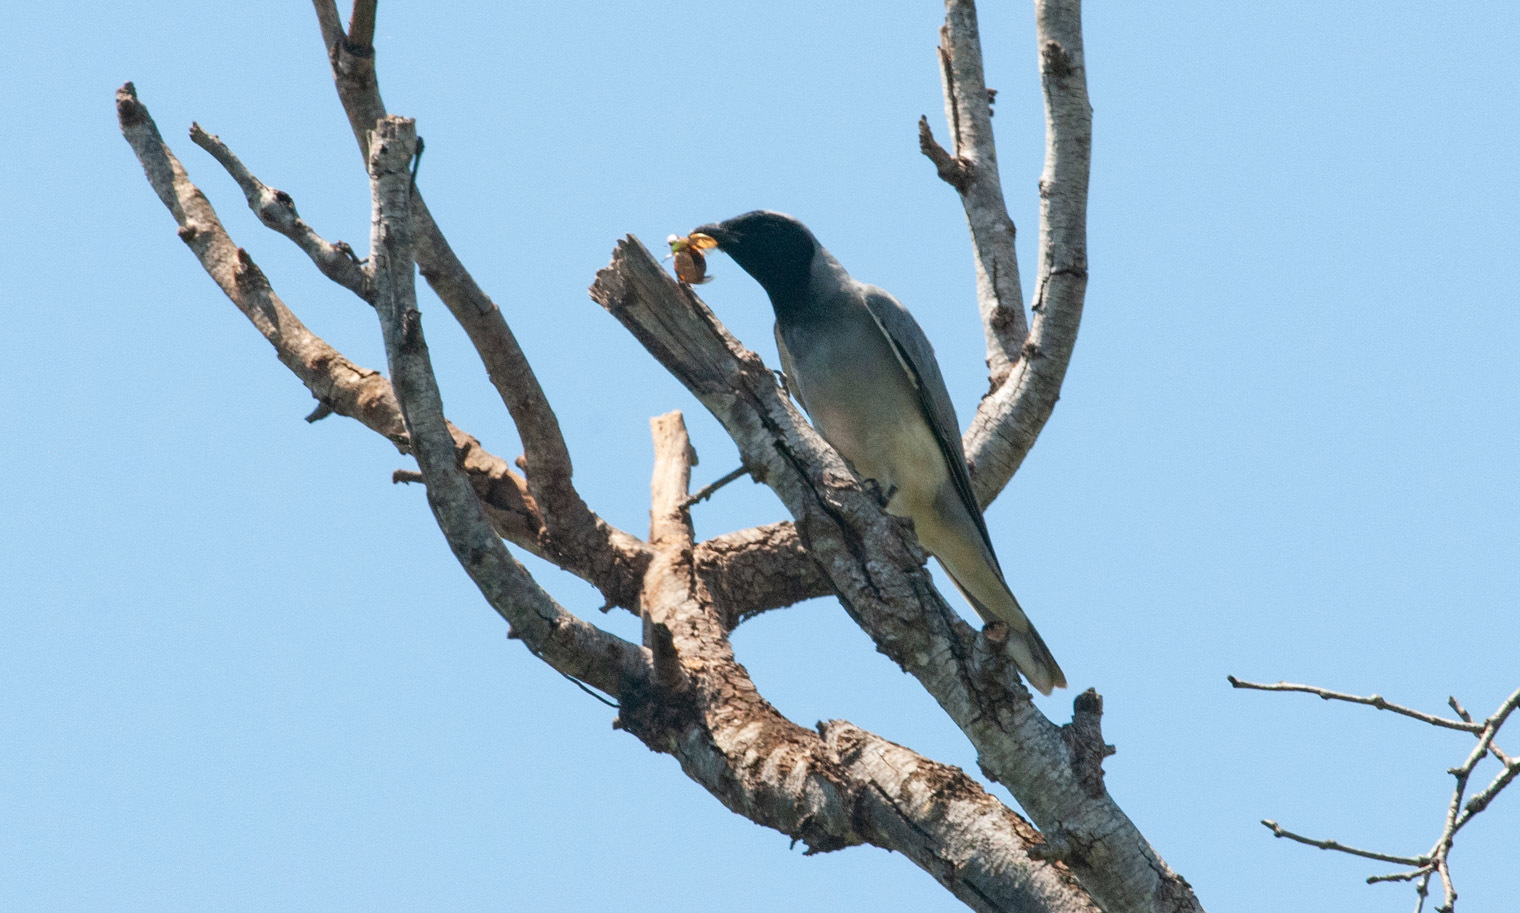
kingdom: Animalia
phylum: Chordata
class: Aves
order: Passeriformes
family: Campephagidae
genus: Coracina
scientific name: Coracina novaehollandiae
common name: Black-faced cuckooshrike
